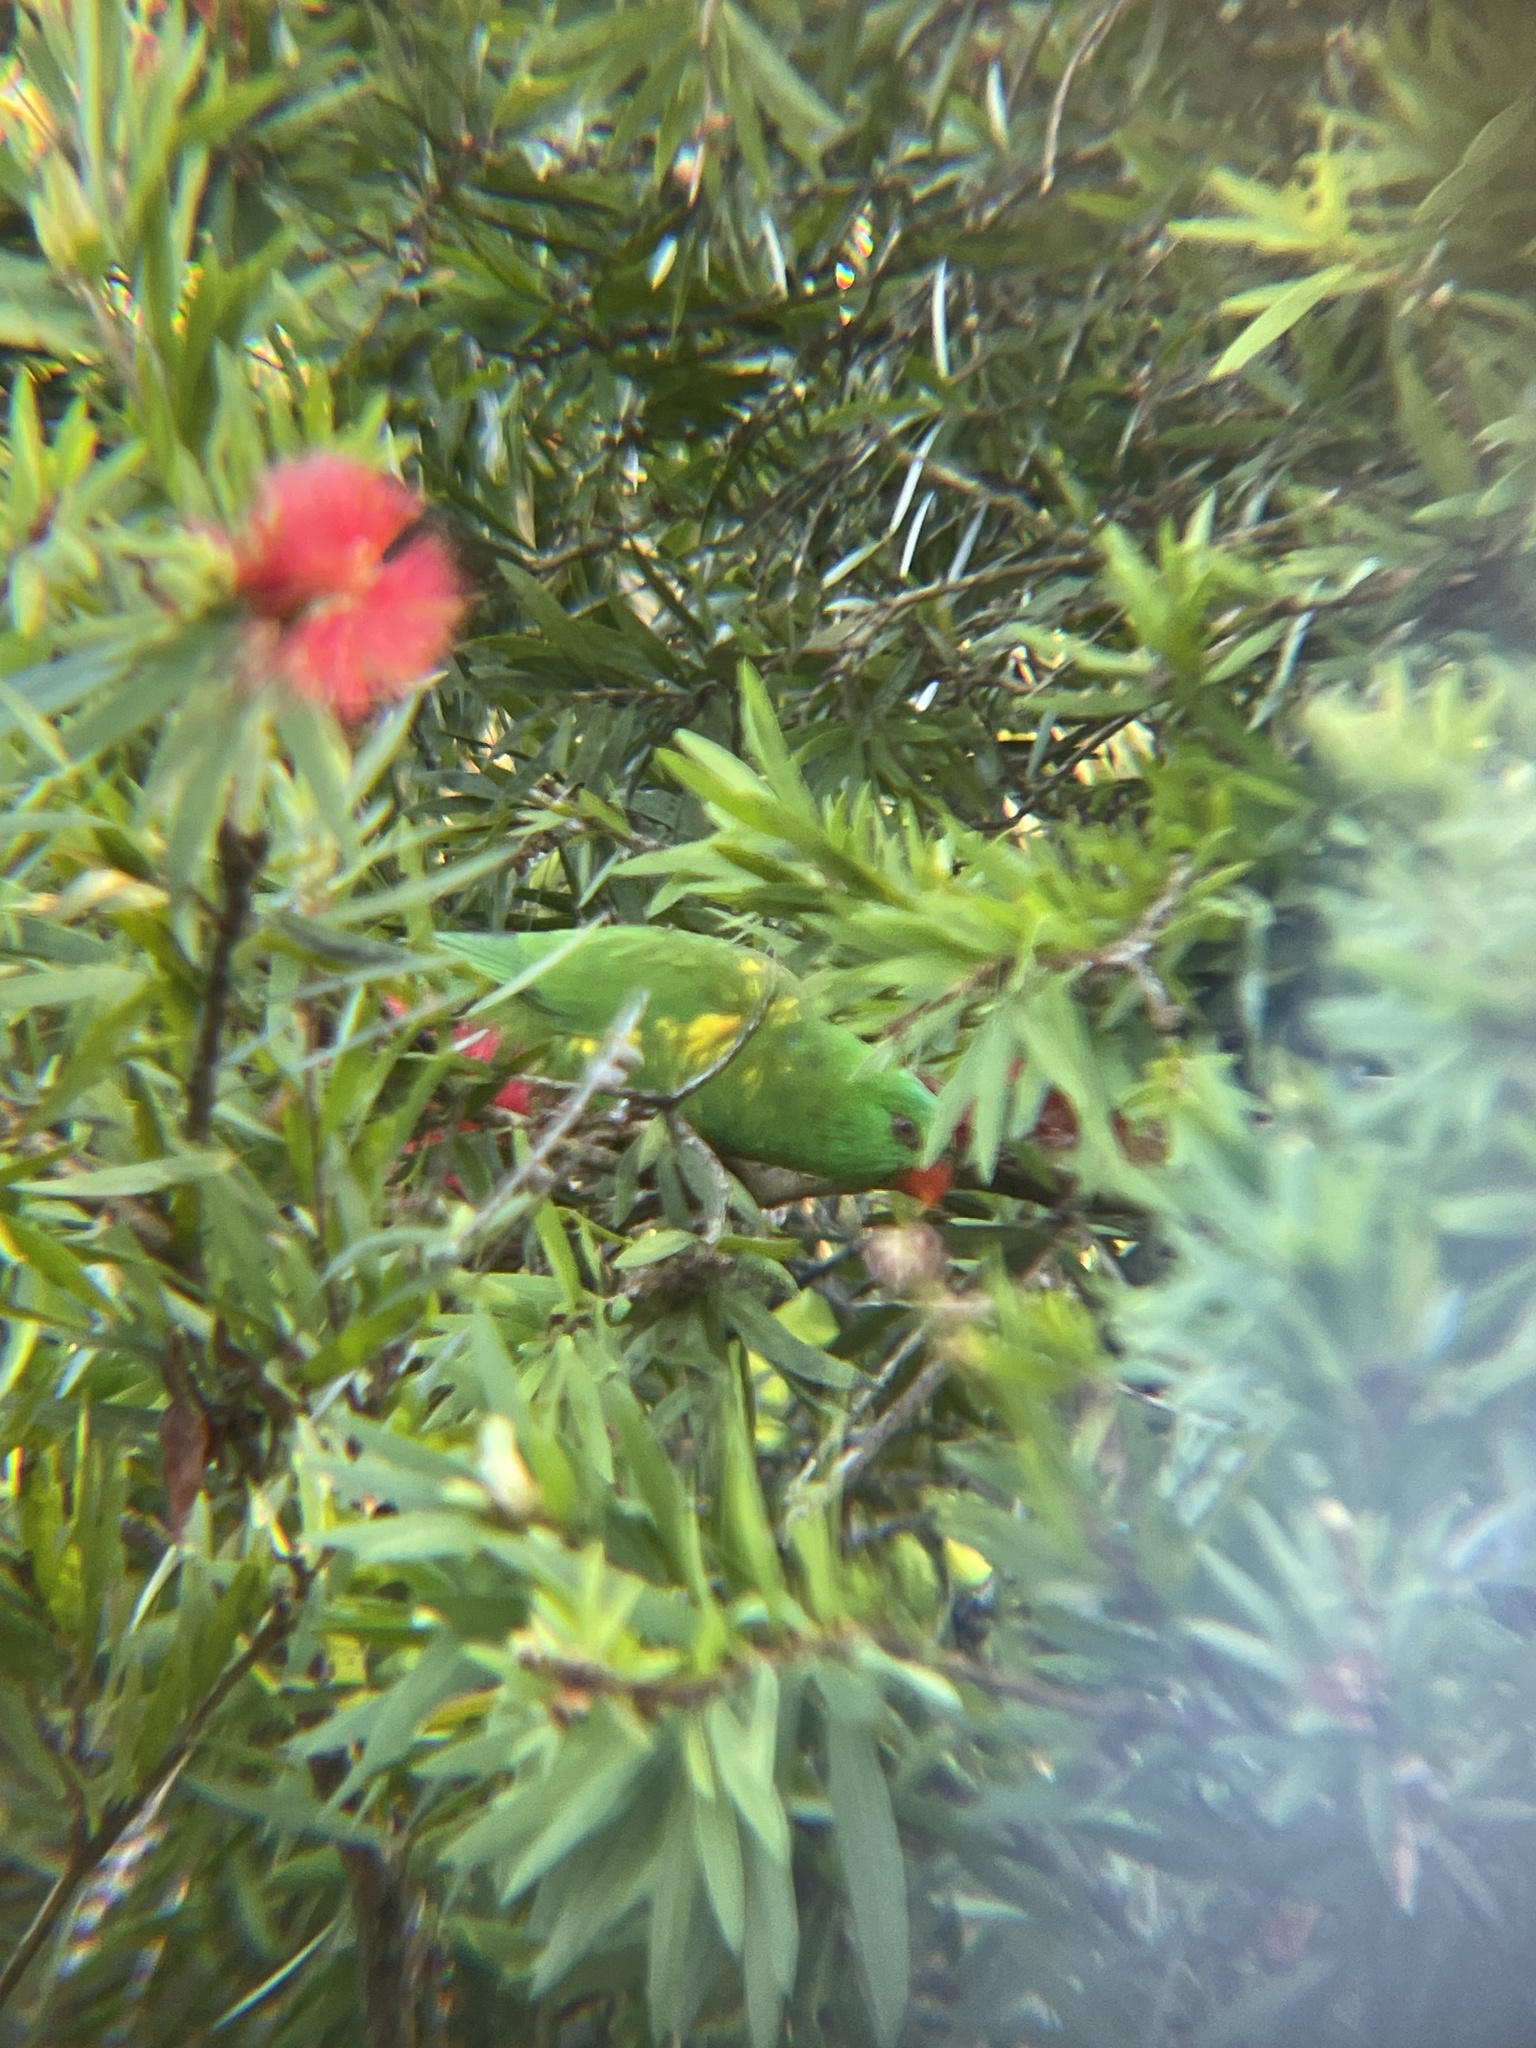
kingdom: Animalia
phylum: Chordata
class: Aves
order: Psittaciformes
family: Psittacidae
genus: Trichoglossus
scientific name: Trichoglossus chlorolepidotus
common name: Scaly-breasted lorikeet
